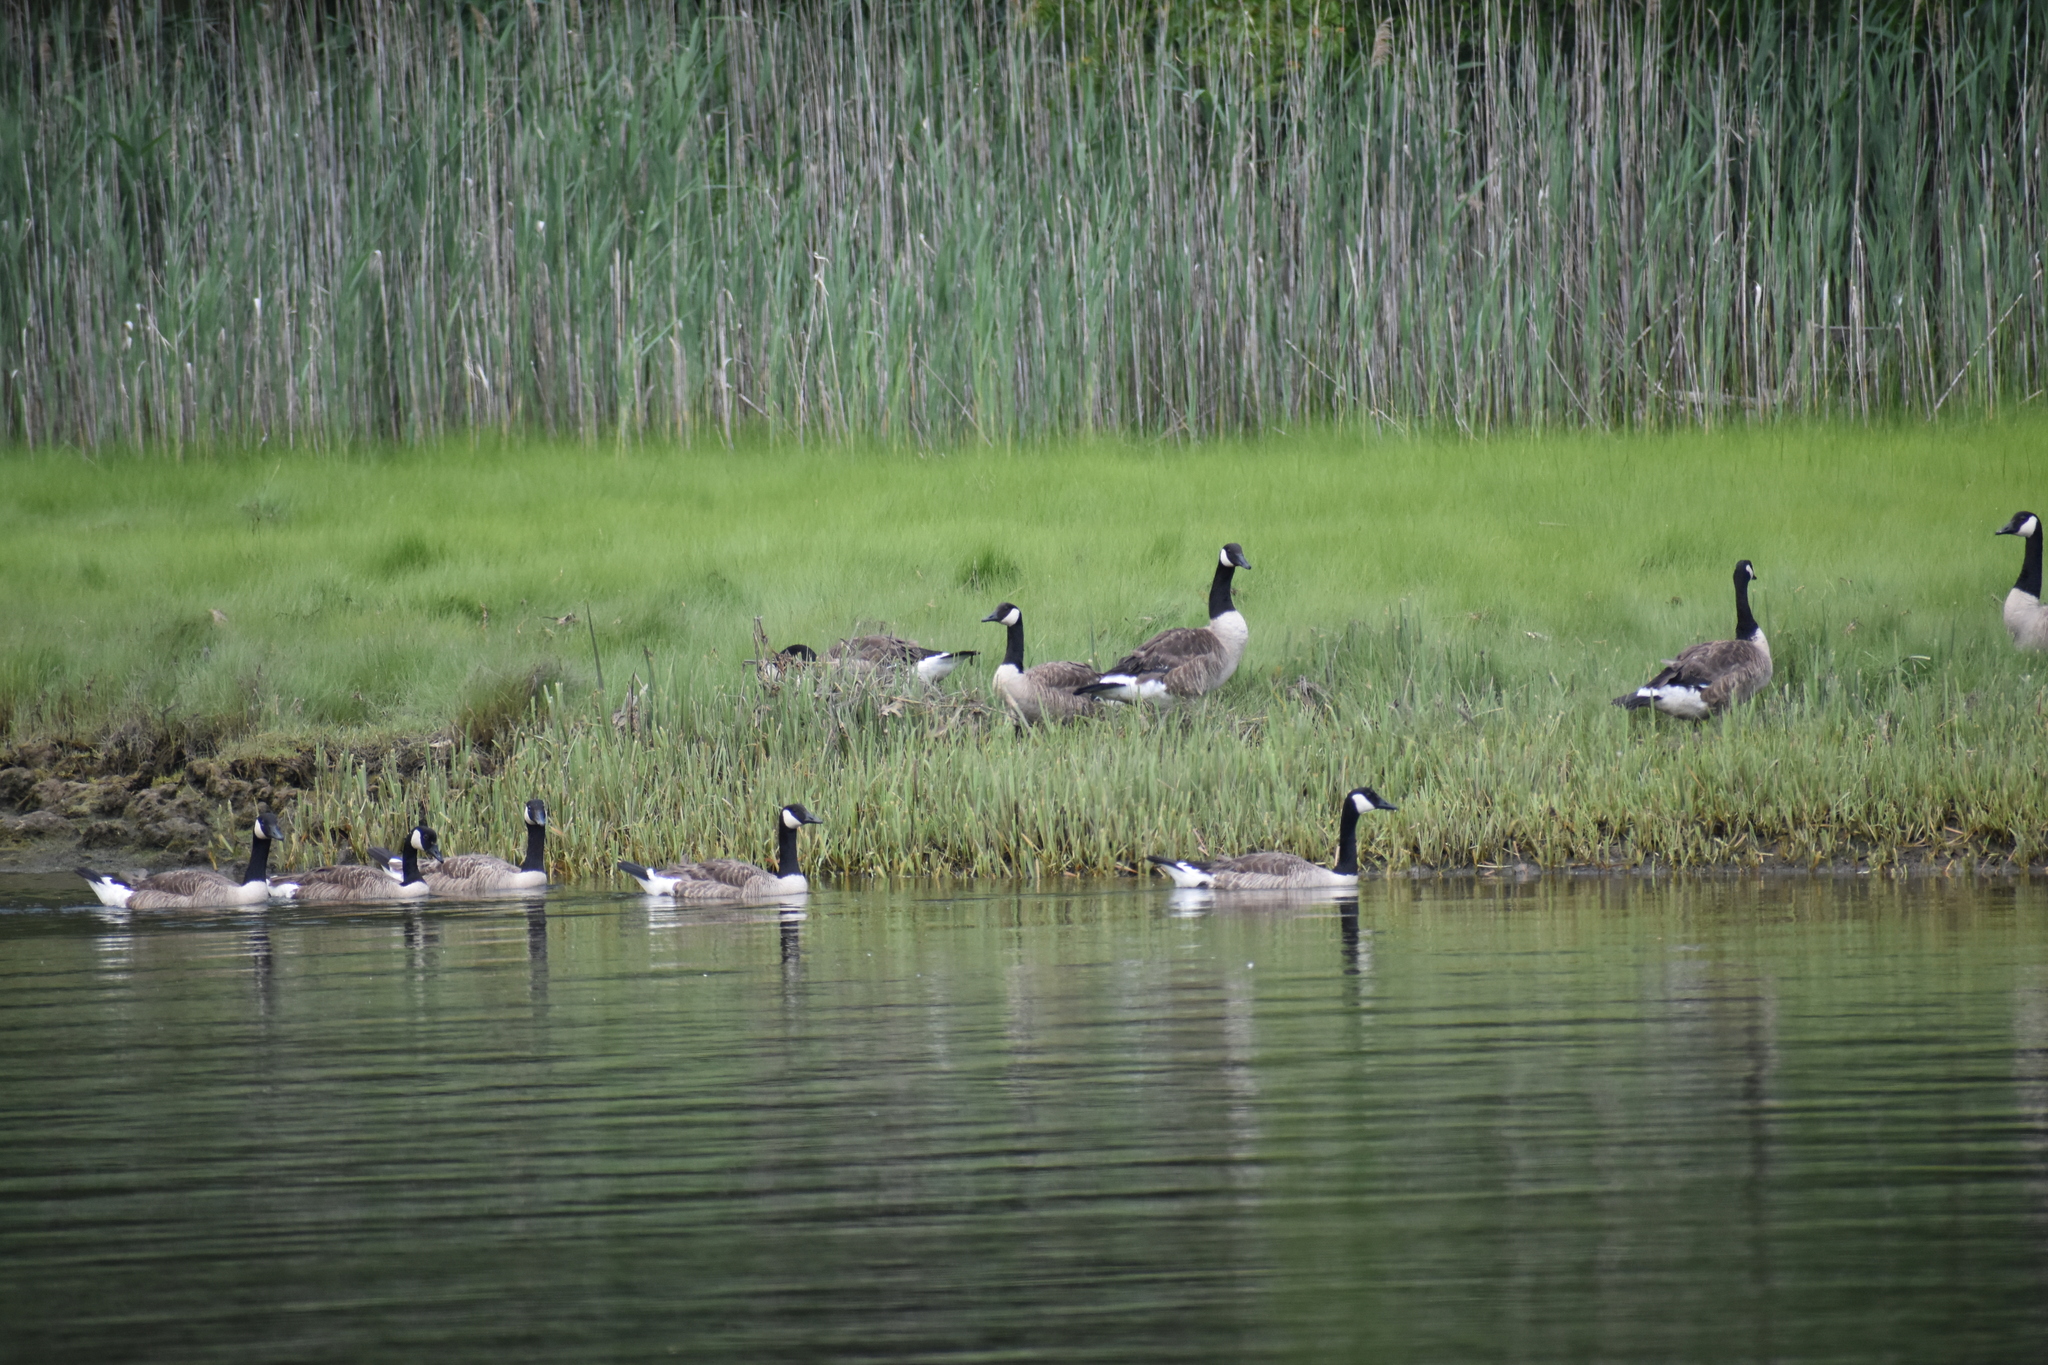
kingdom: Animalia
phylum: Chordata
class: Aves
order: Anseriformes
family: Anatidae
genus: Branta
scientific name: Branta canadensis
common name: Canada goose
